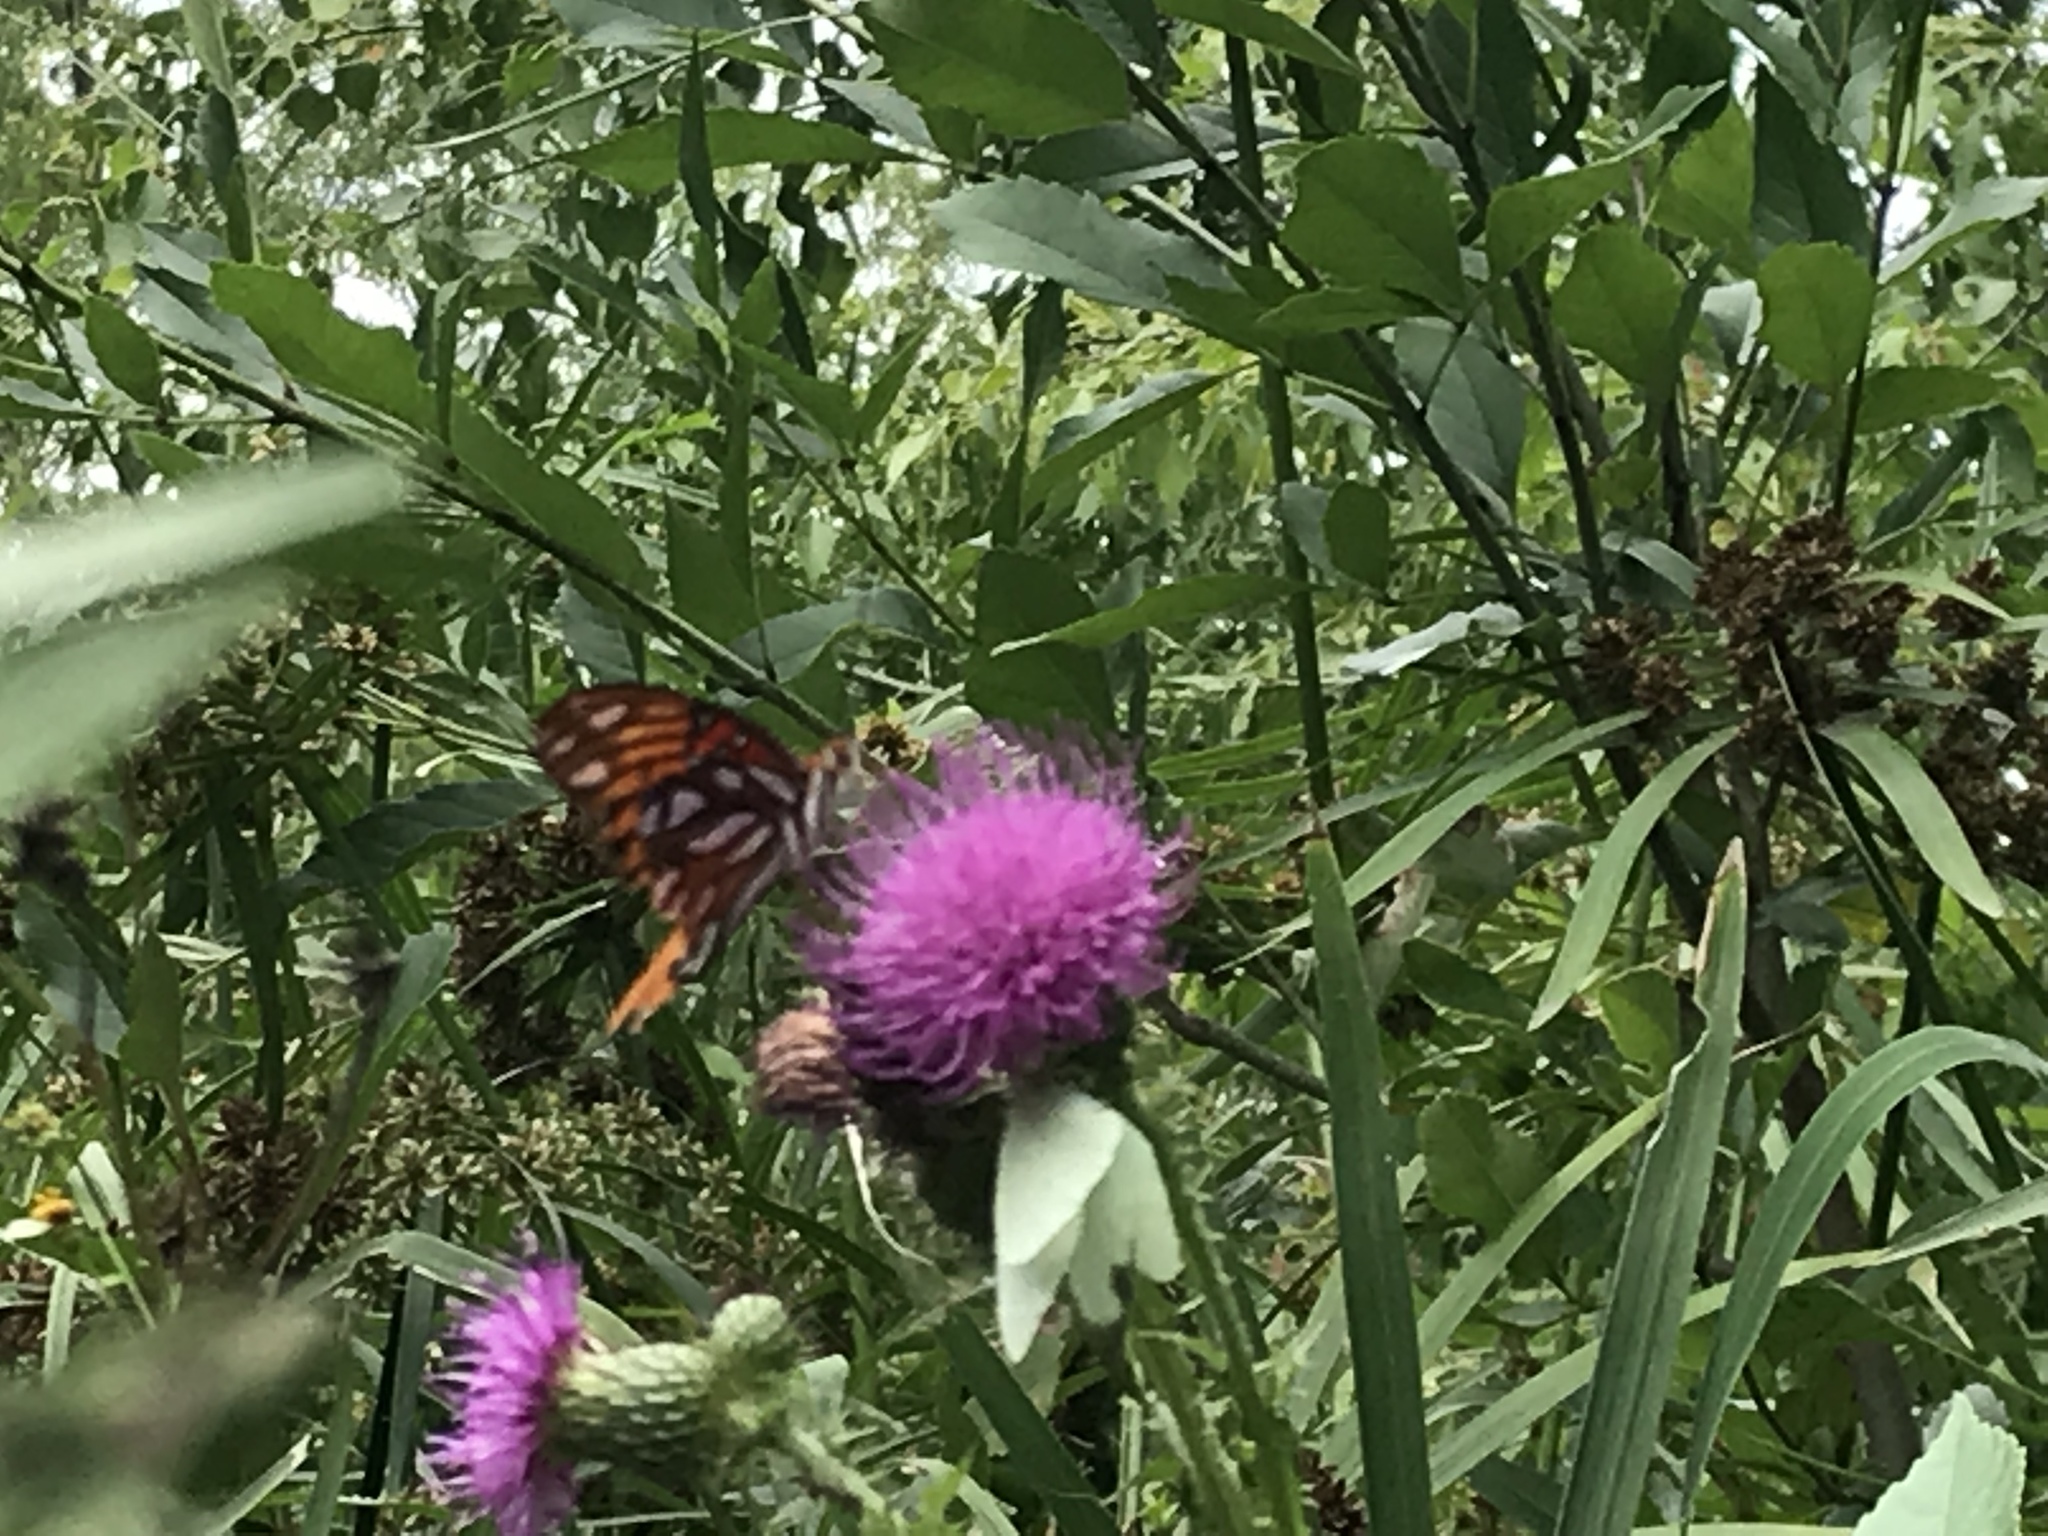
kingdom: Plantae
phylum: Tracheophyta
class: Magnoliopsida
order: Asterales
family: Asteraceae
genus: Cirsium
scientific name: Cirsium texanum
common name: Texas purple thistle
